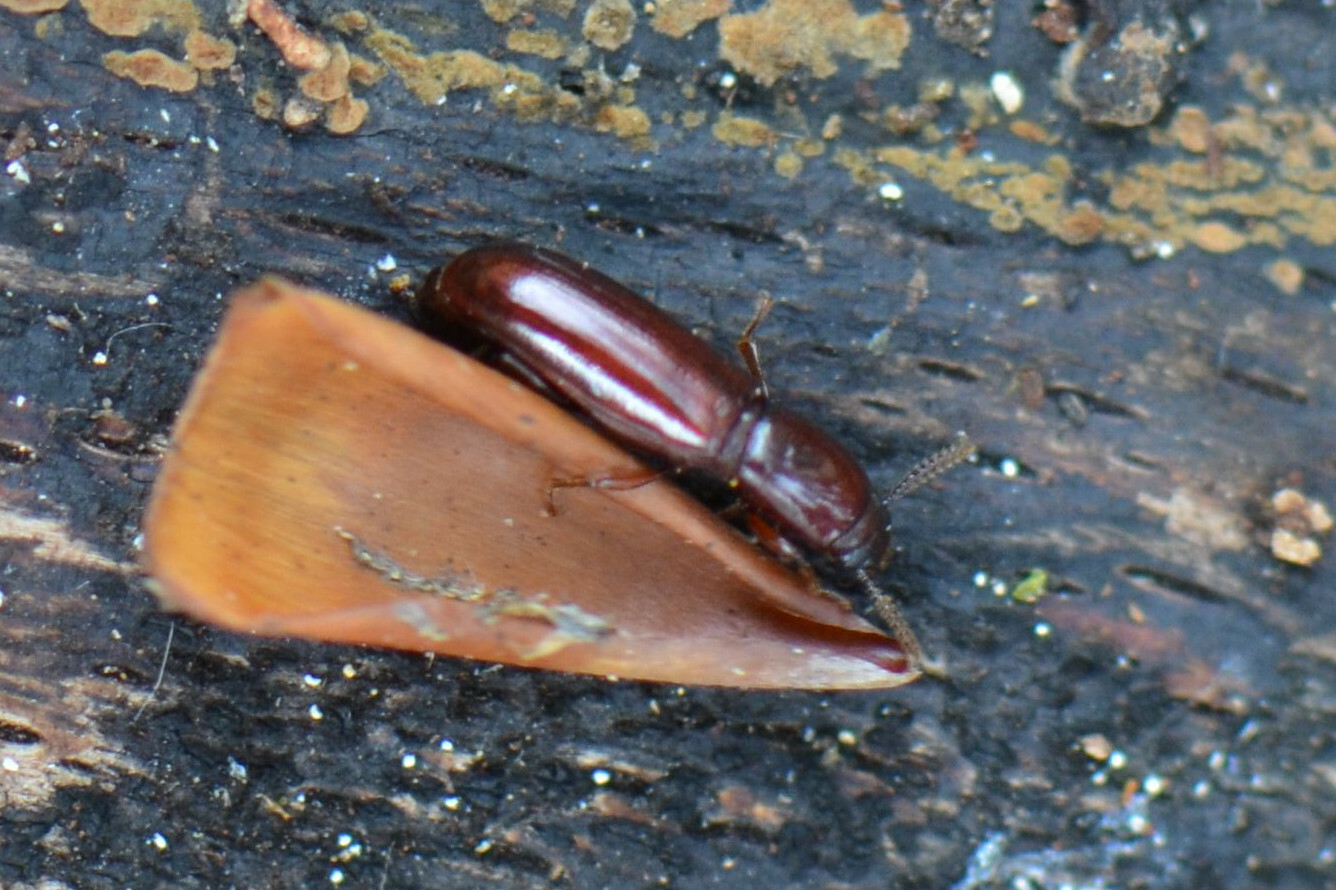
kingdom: Animalia
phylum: Arthropoda
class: Insecta
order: Coleoptera
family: Tenebrionidae
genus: Corticeus
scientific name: Corticeus unicolor
